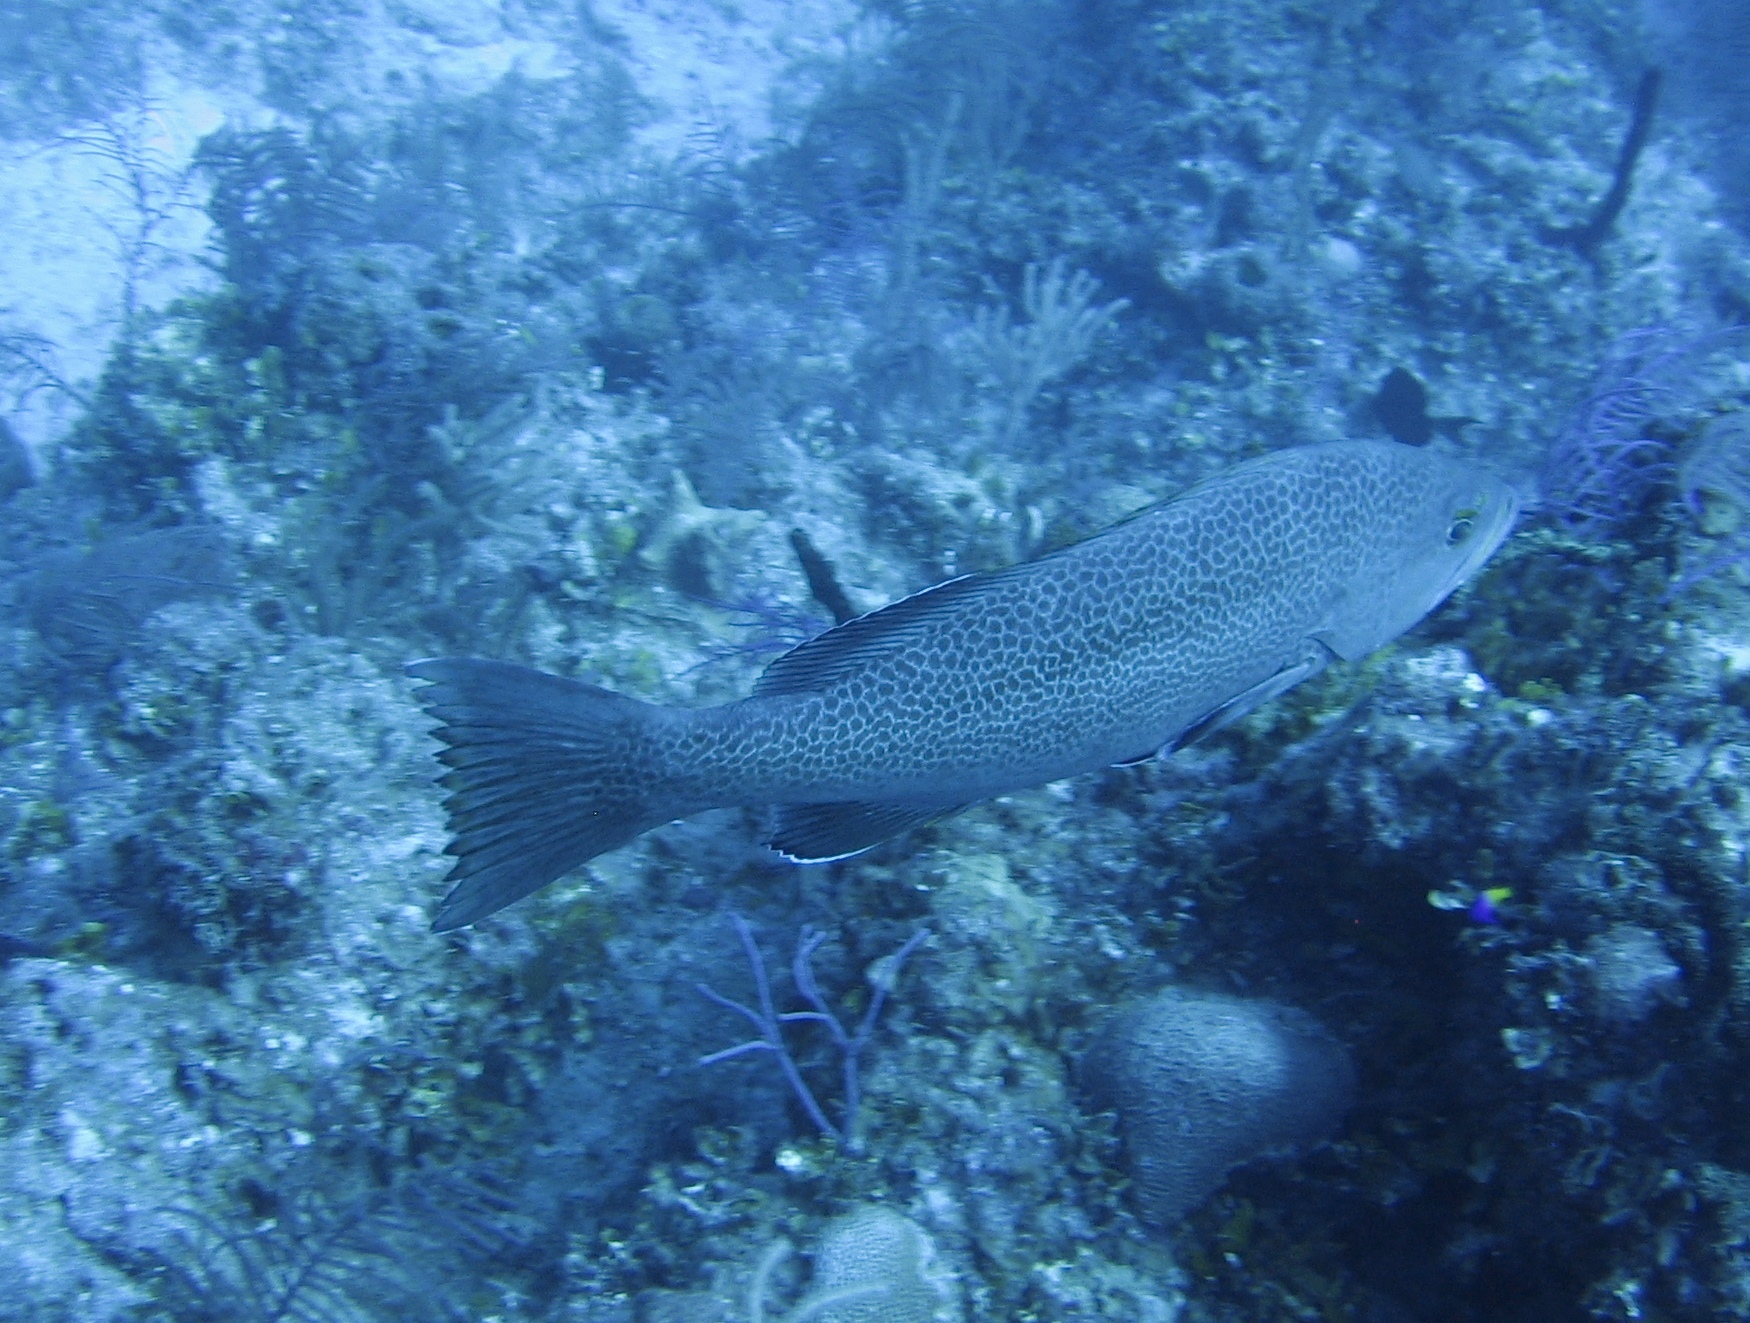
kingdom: Animalia
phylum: Chordata
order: Perciformes
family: Serranidae
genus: Epinephelus
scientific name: Epinephelus guttatus
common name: Red hind
